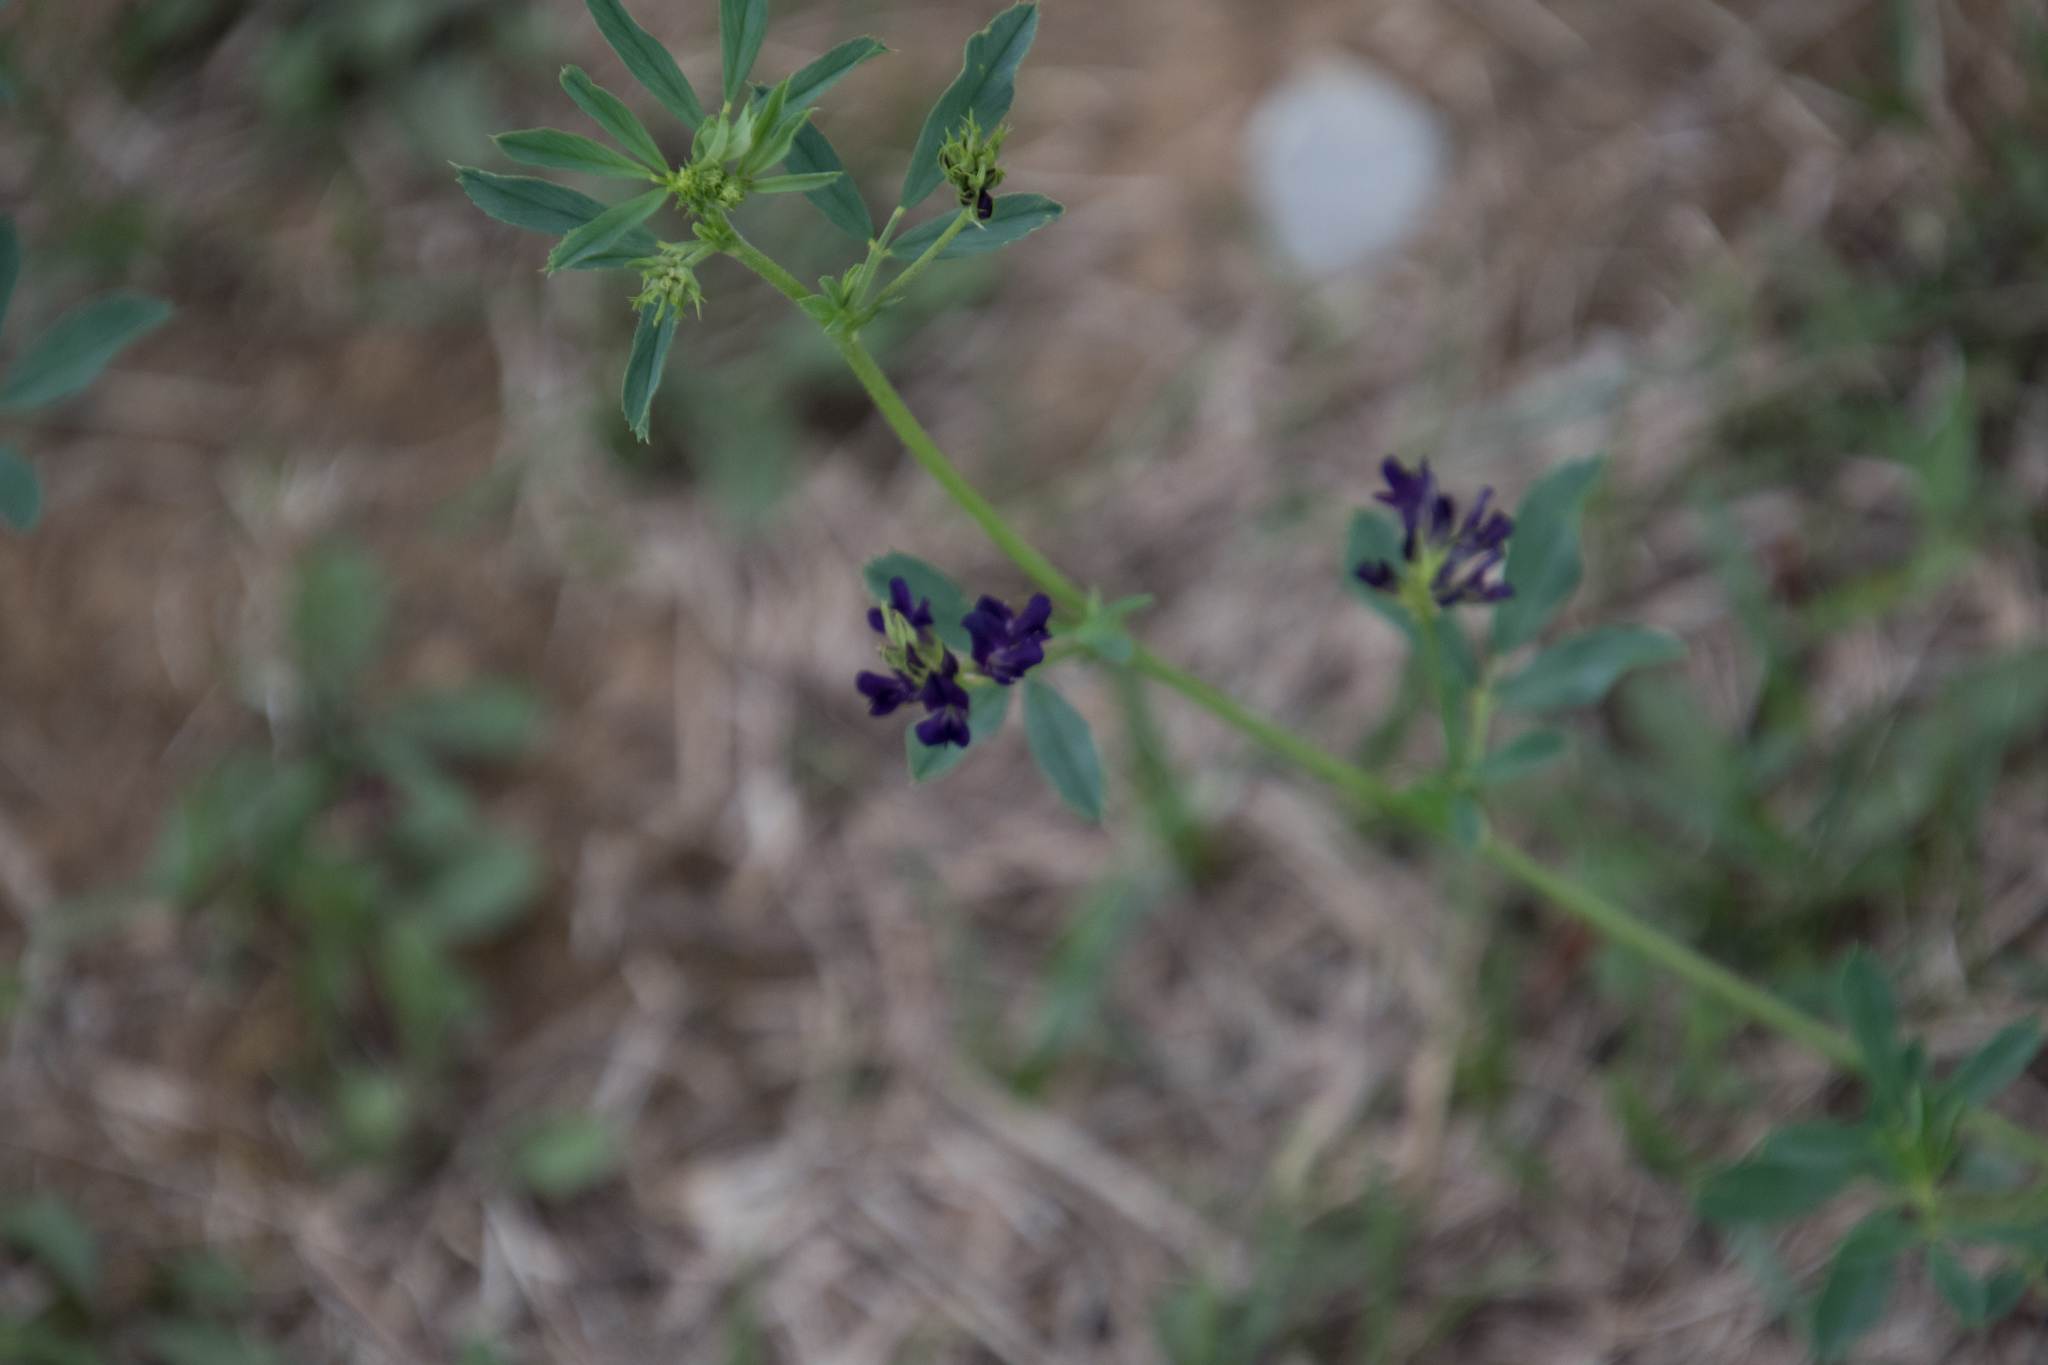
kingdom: Plantae
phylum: Tracheophyta
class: Magnoliopsida
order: Fabales
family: Fabaceae
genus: Medicago
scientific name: Medicago varia
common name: Sand lucerne
